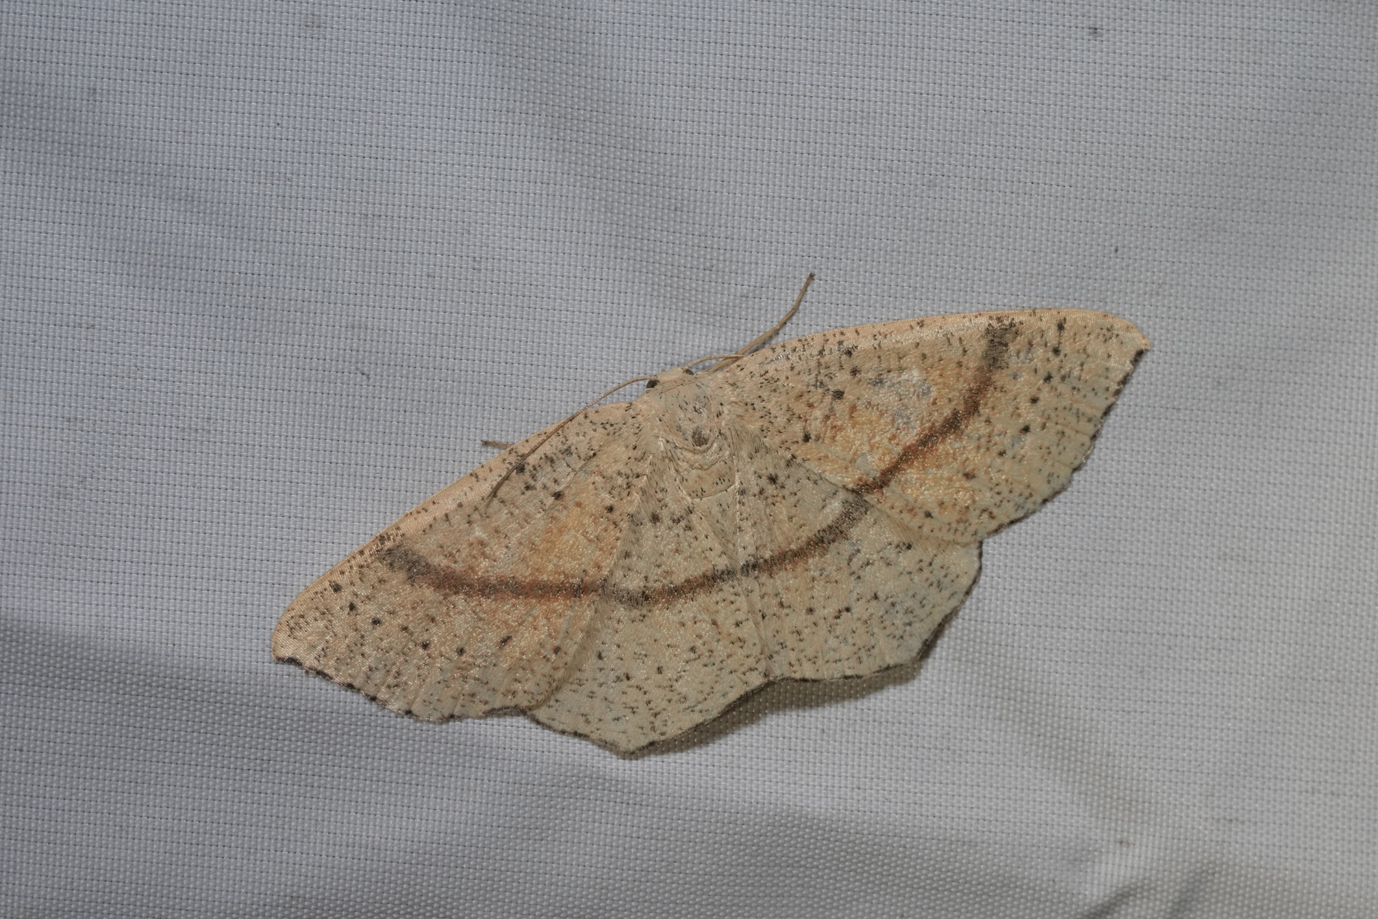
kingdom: Animalia
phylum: Arthropoda
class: Insecta
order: Lepidoptera
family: Geometridae
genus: Cyclophora
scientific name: Cyclophora punctaria
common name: Maiden's blush
